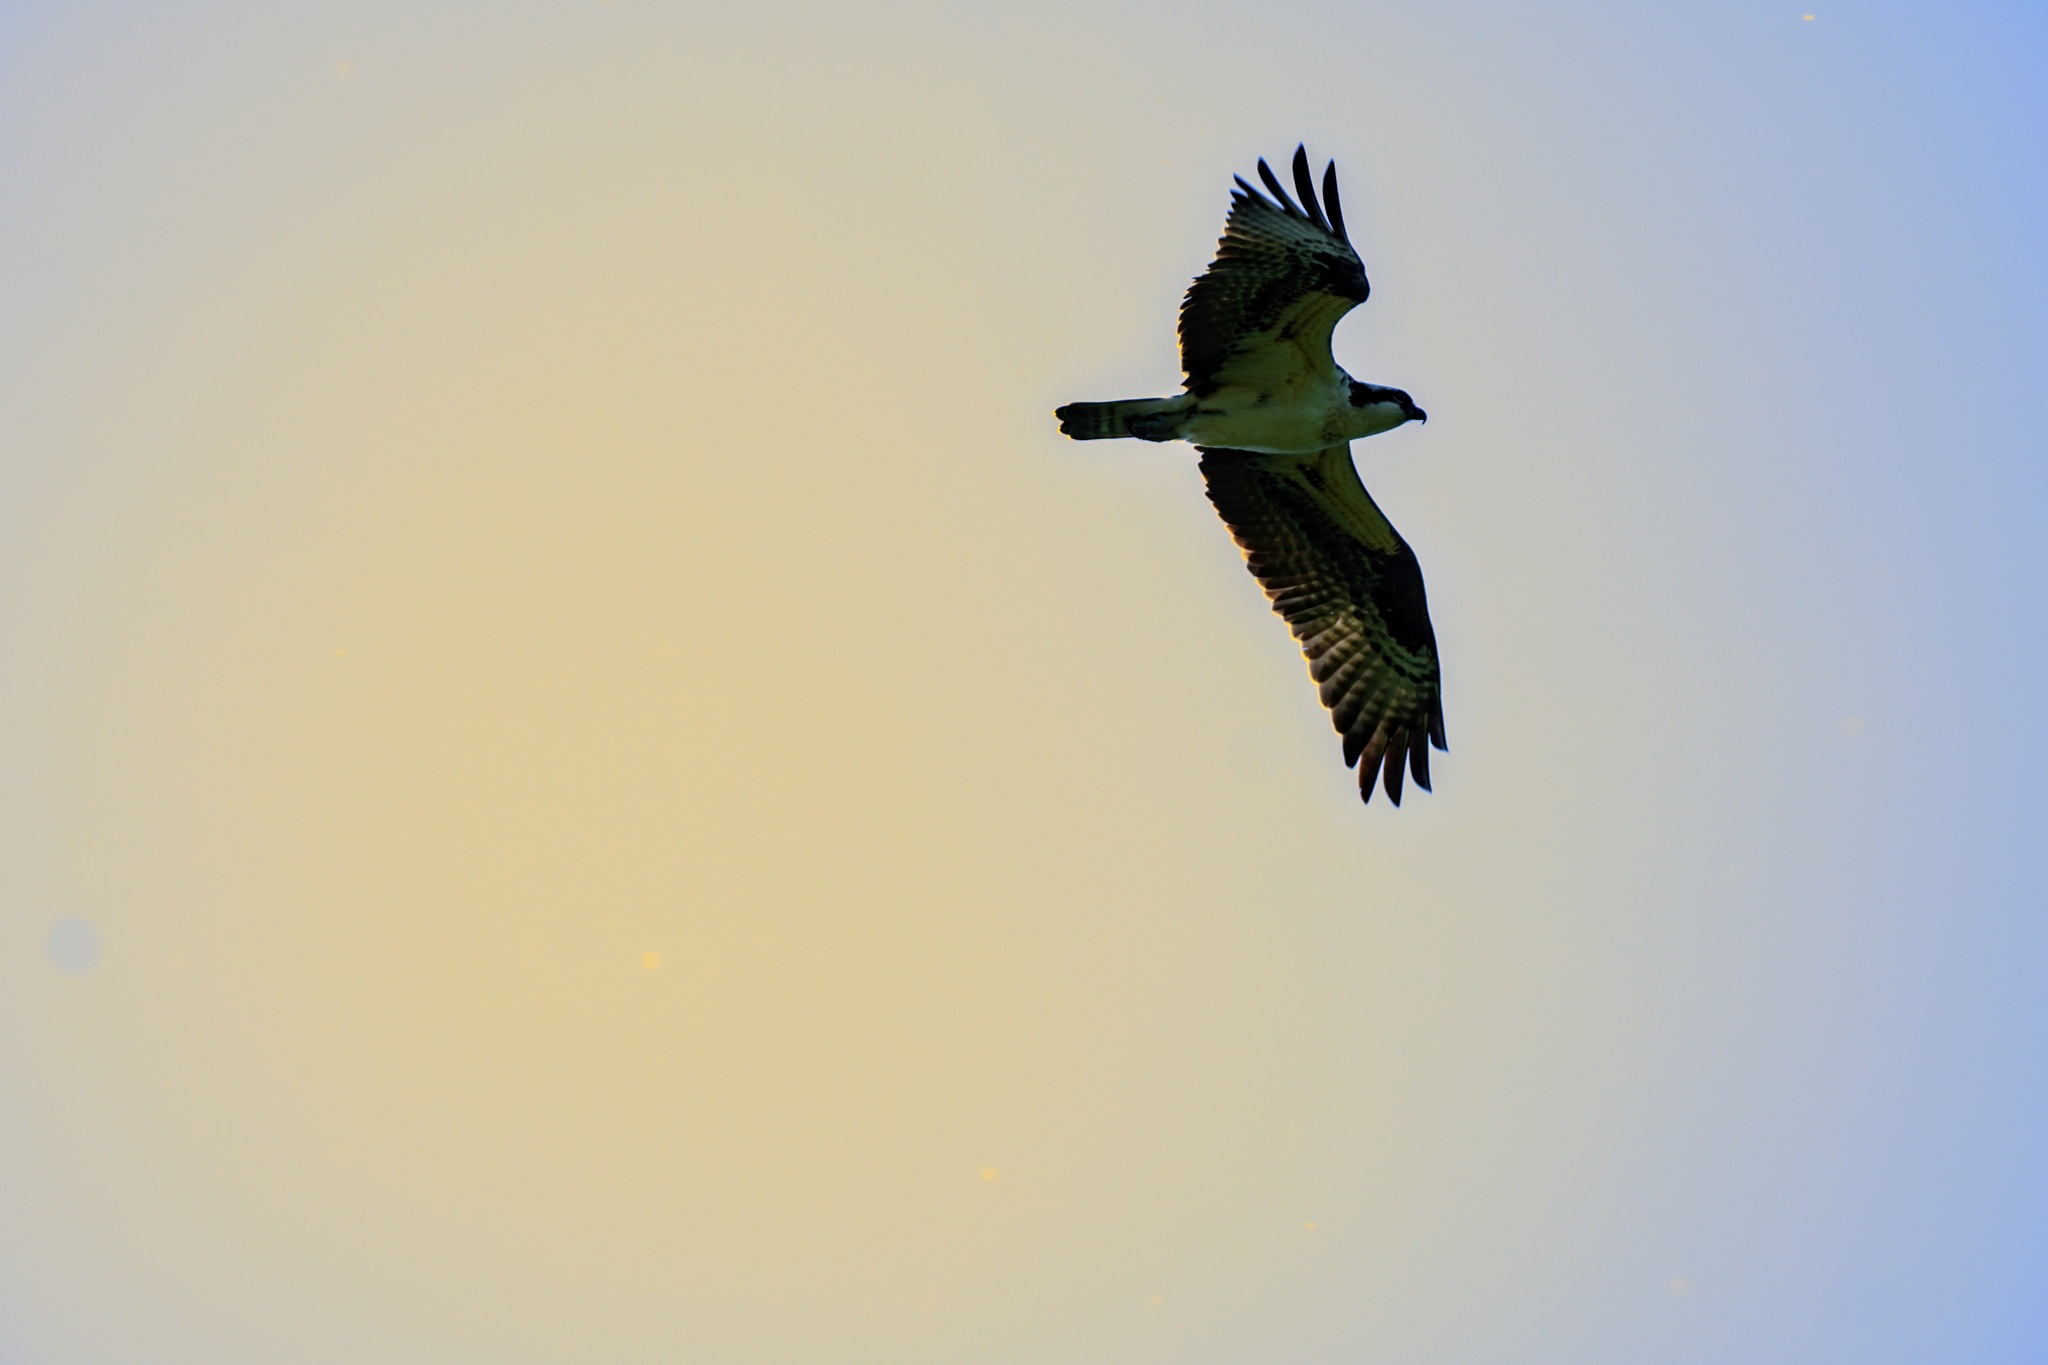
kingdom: Animalia
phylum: Chordata
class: Aves
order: Accipitriformes
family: Pandionidae
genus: Pandion
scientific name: Pandion haliaetus
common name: Osprey
